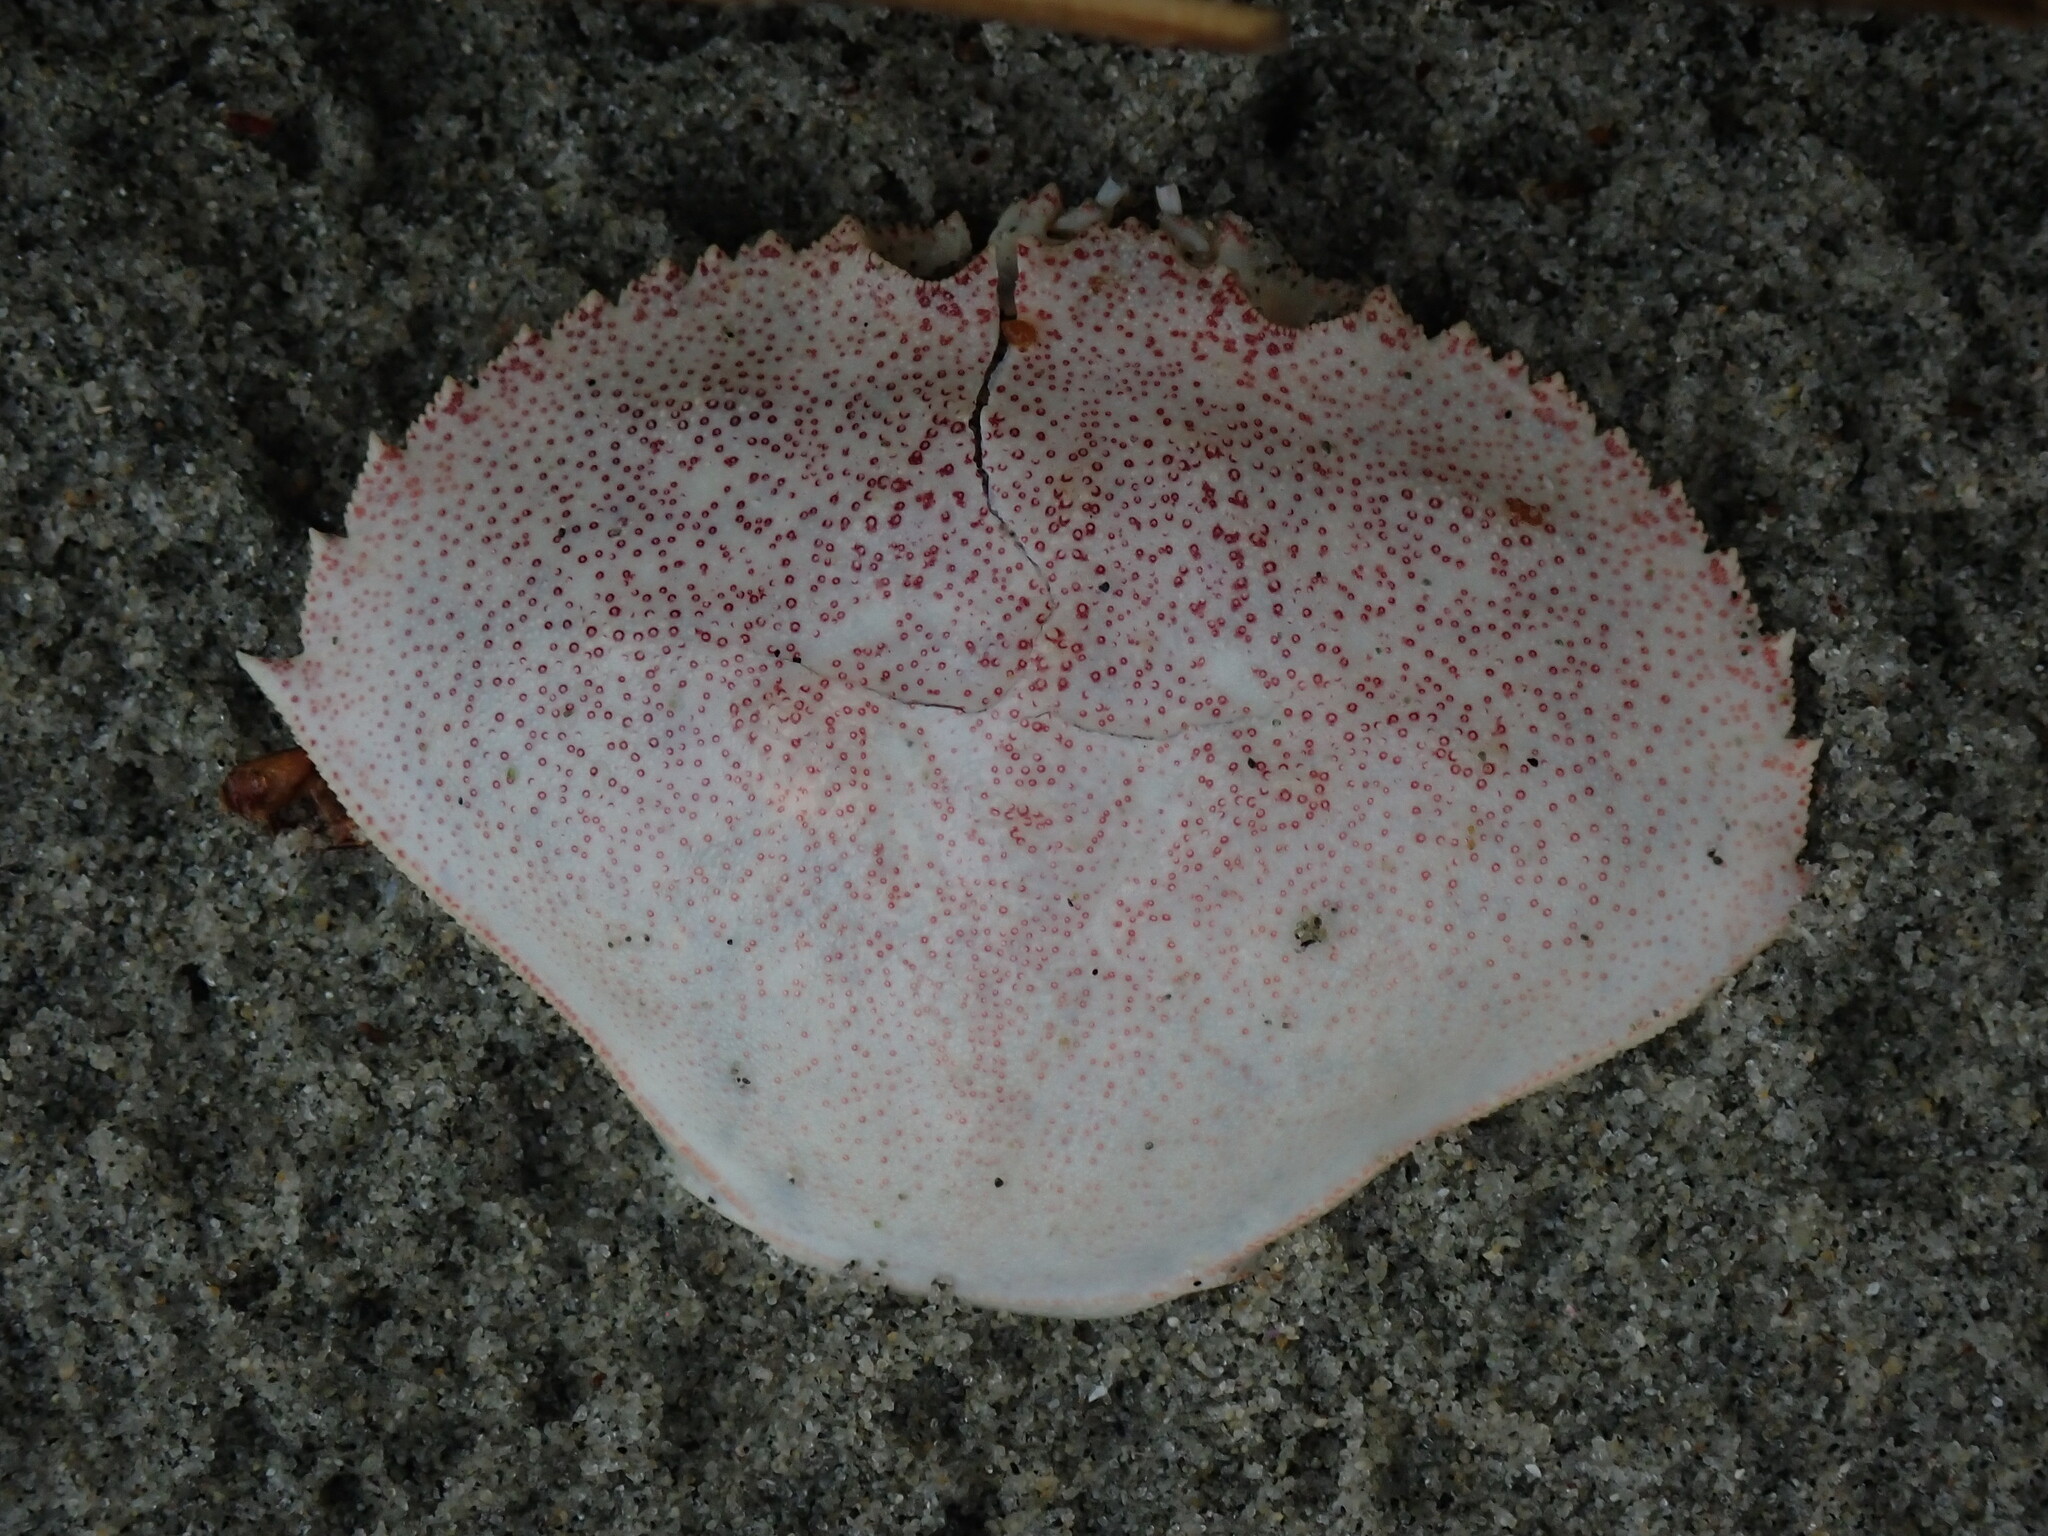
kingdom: Animalia
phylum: Arthropoda
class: Malacostraca
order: Decapoda
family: Cancridae
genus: Metacarcinus
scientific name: Metacarcinus magister
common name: Californian crab
